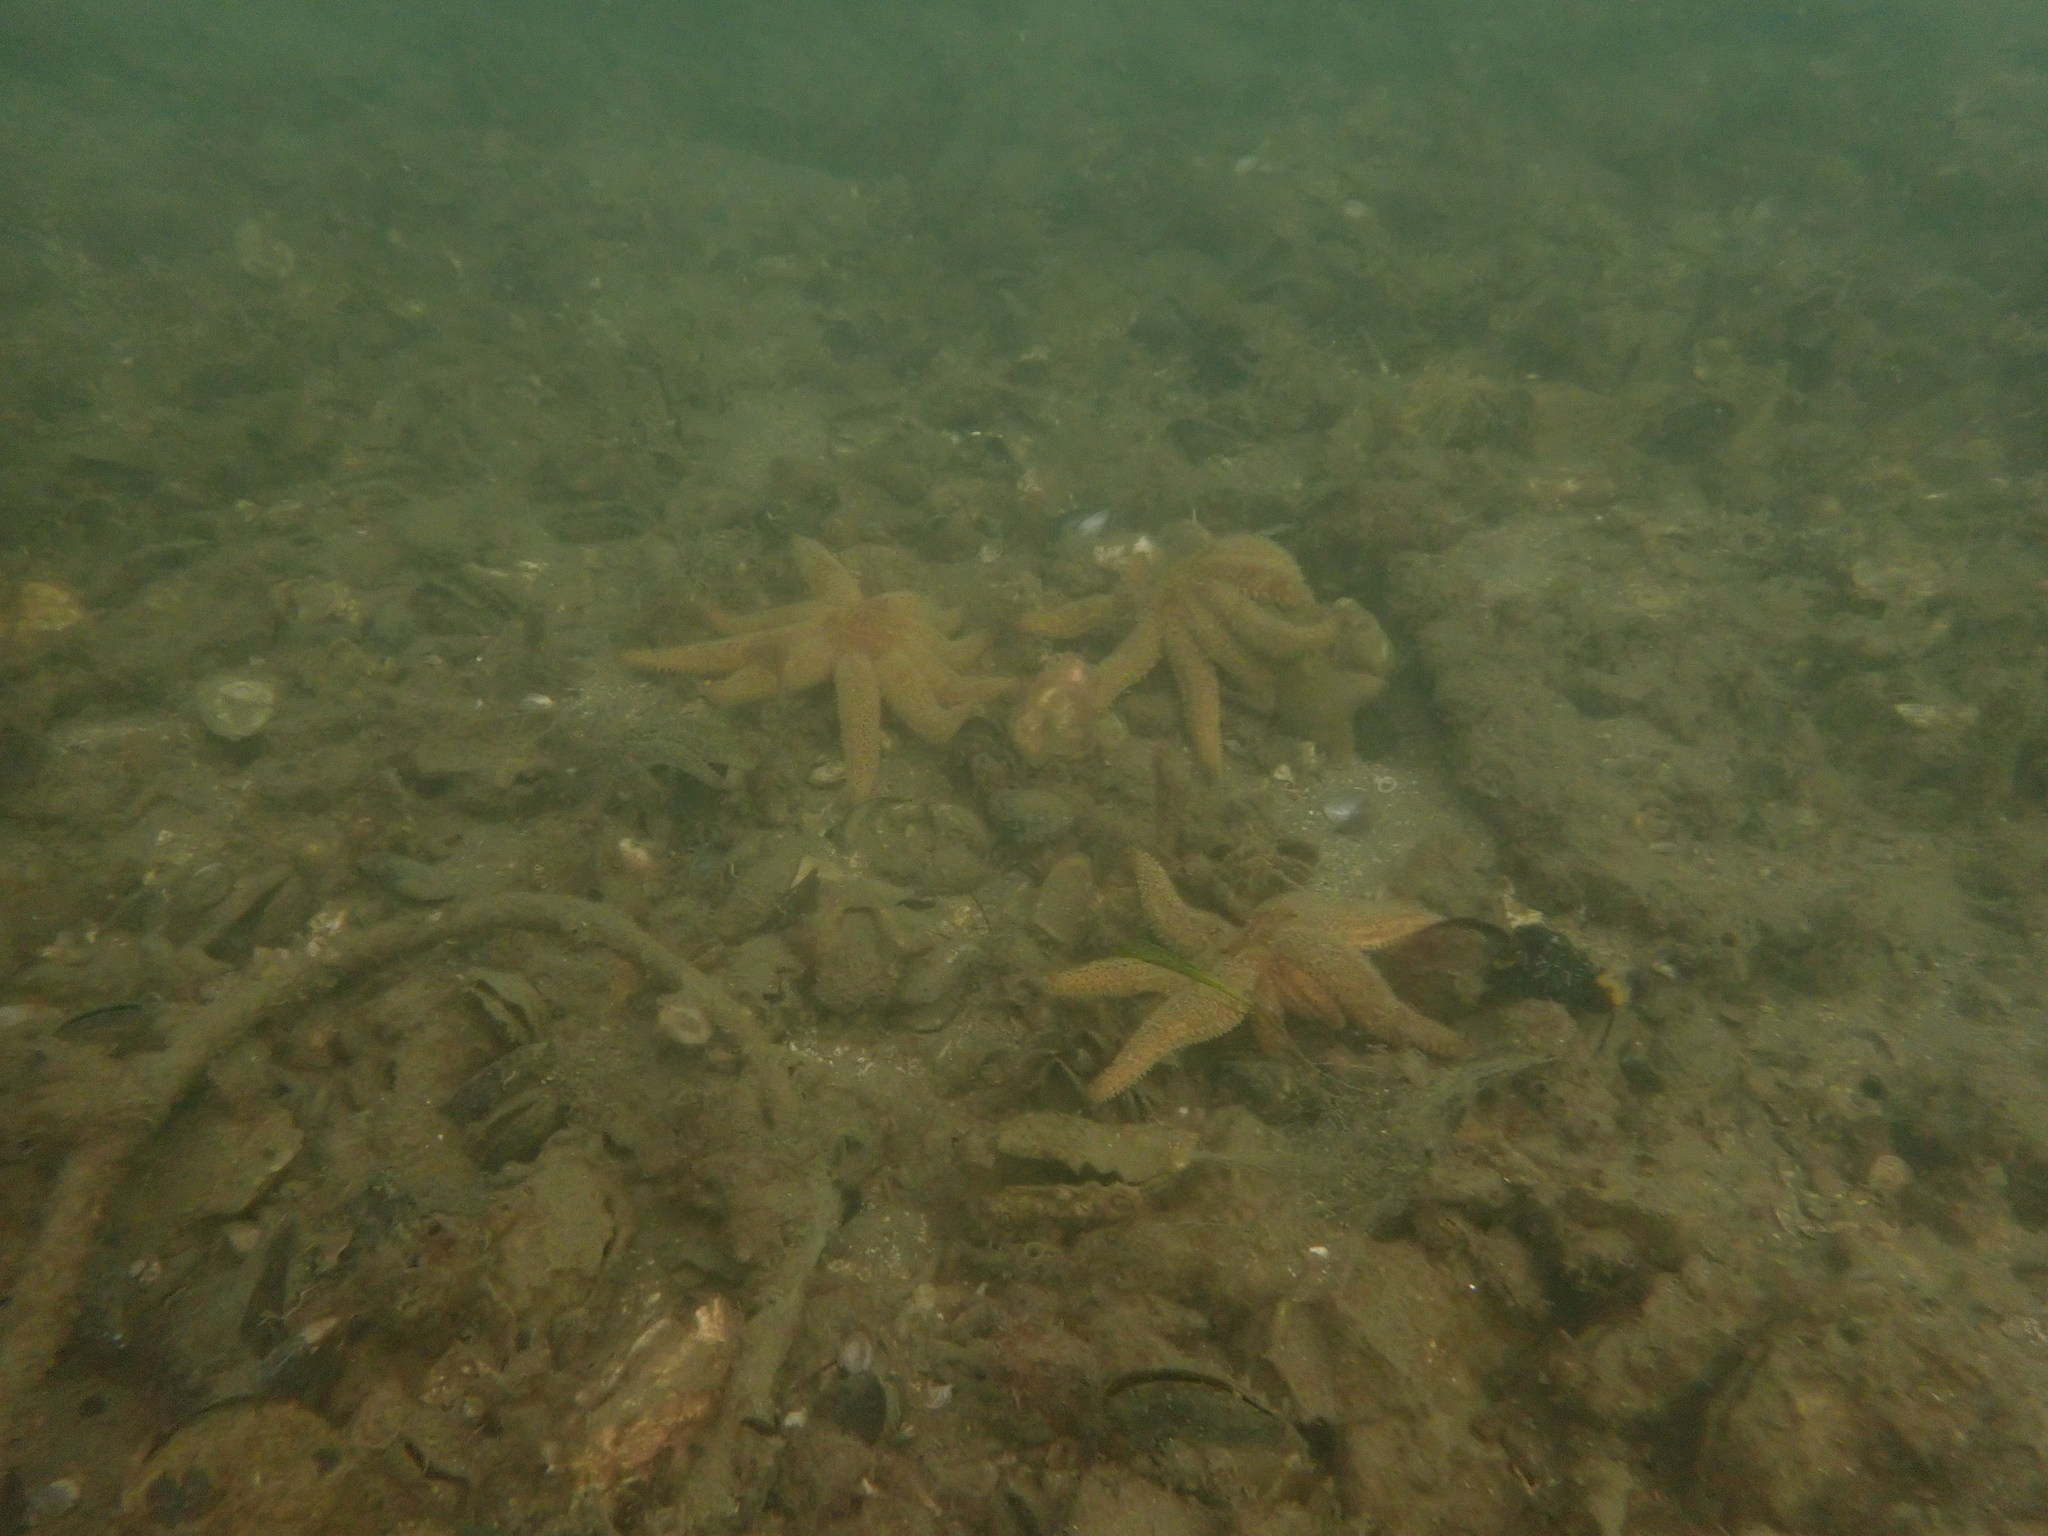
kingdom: Animalia
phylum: Echinodermata
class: Asteroidea
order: Forcipulatida
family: Asteriidae
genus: Coscinasterias
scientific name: Coscinasterias muricata
